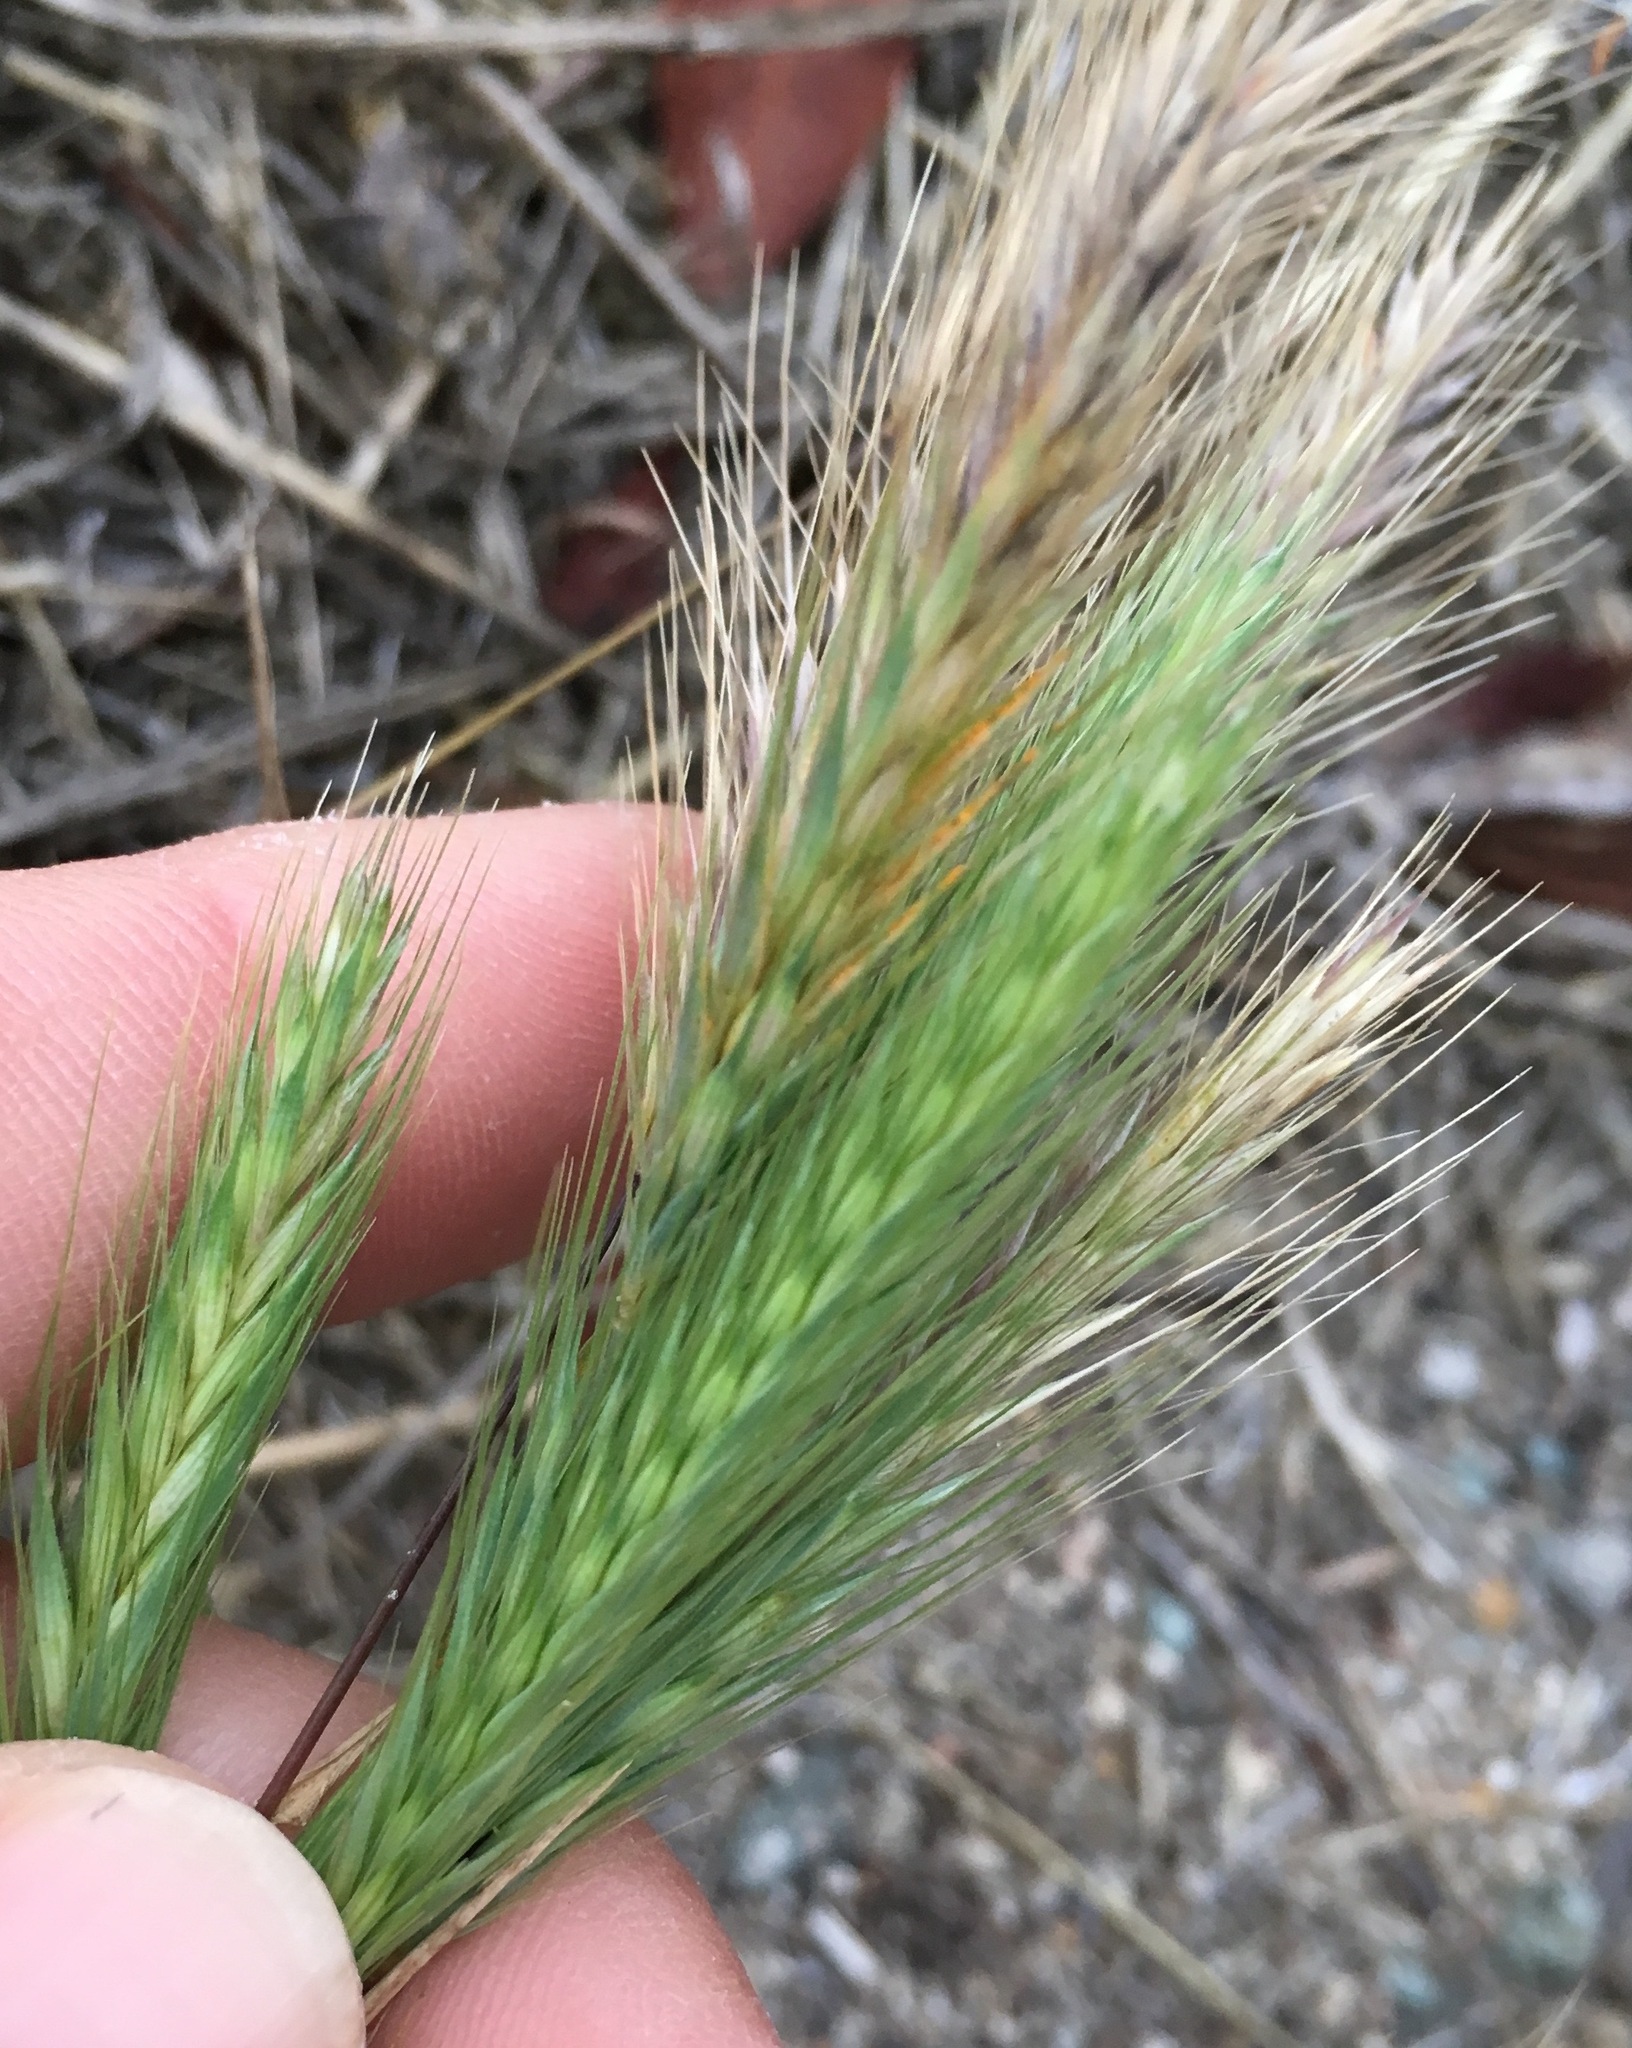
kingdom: Plantae
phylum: Tracheophyta
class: Liliopsida
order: Poales
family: Poaceae
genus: Hordeum
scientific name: Hordeum murinum
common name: Wall barley
